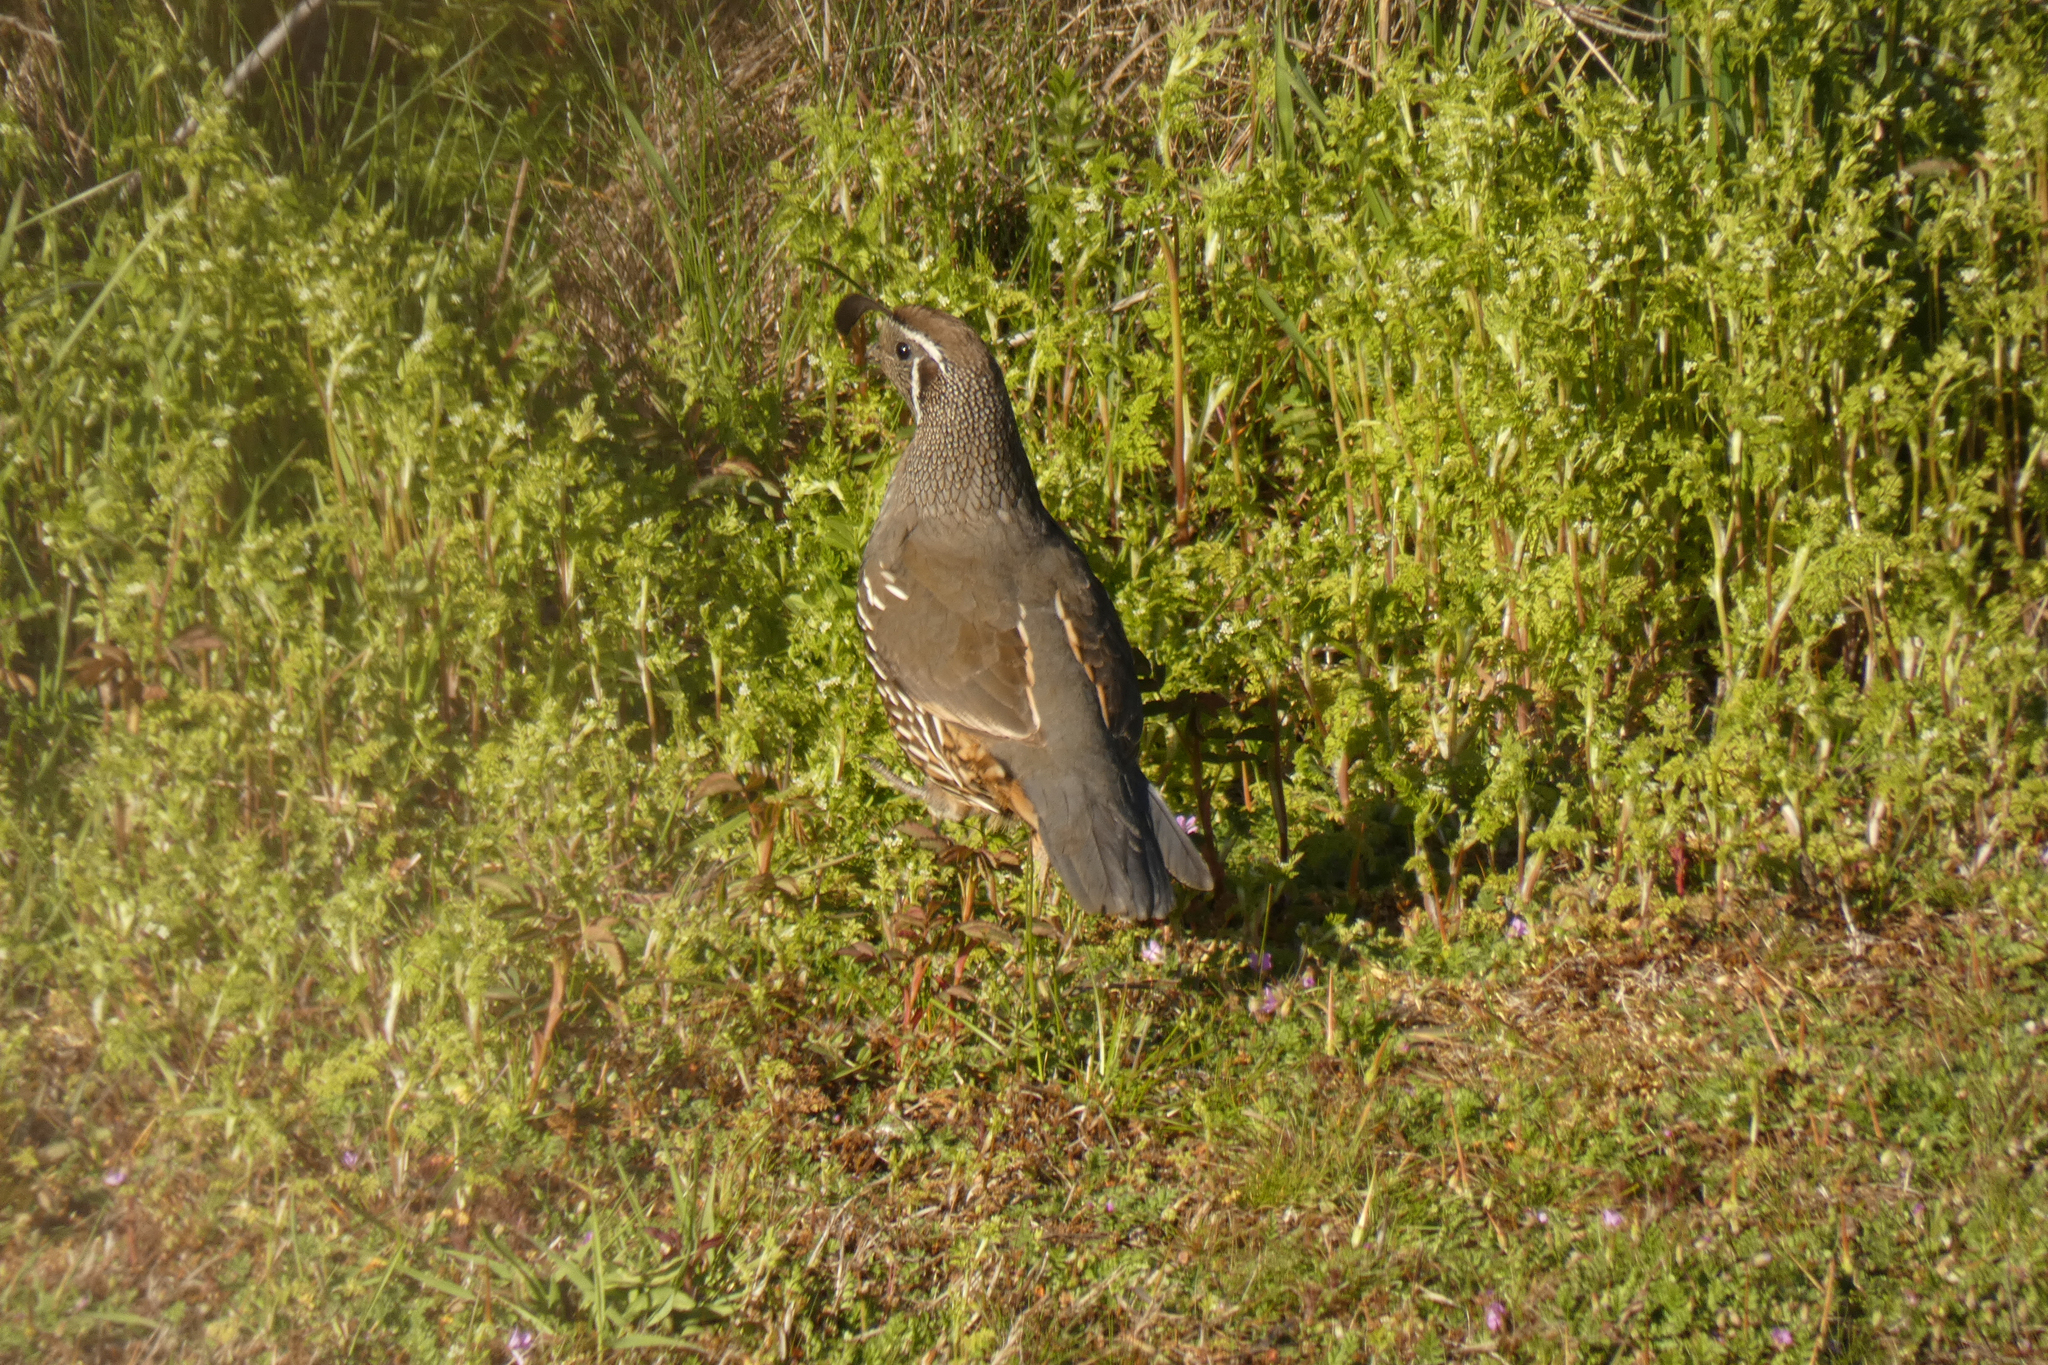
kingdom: Animalia
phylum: Chordata
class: Aves
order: Galliformes
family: Odontophoridae
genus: Callipepla
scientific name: Callipepla californica
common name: California quail
